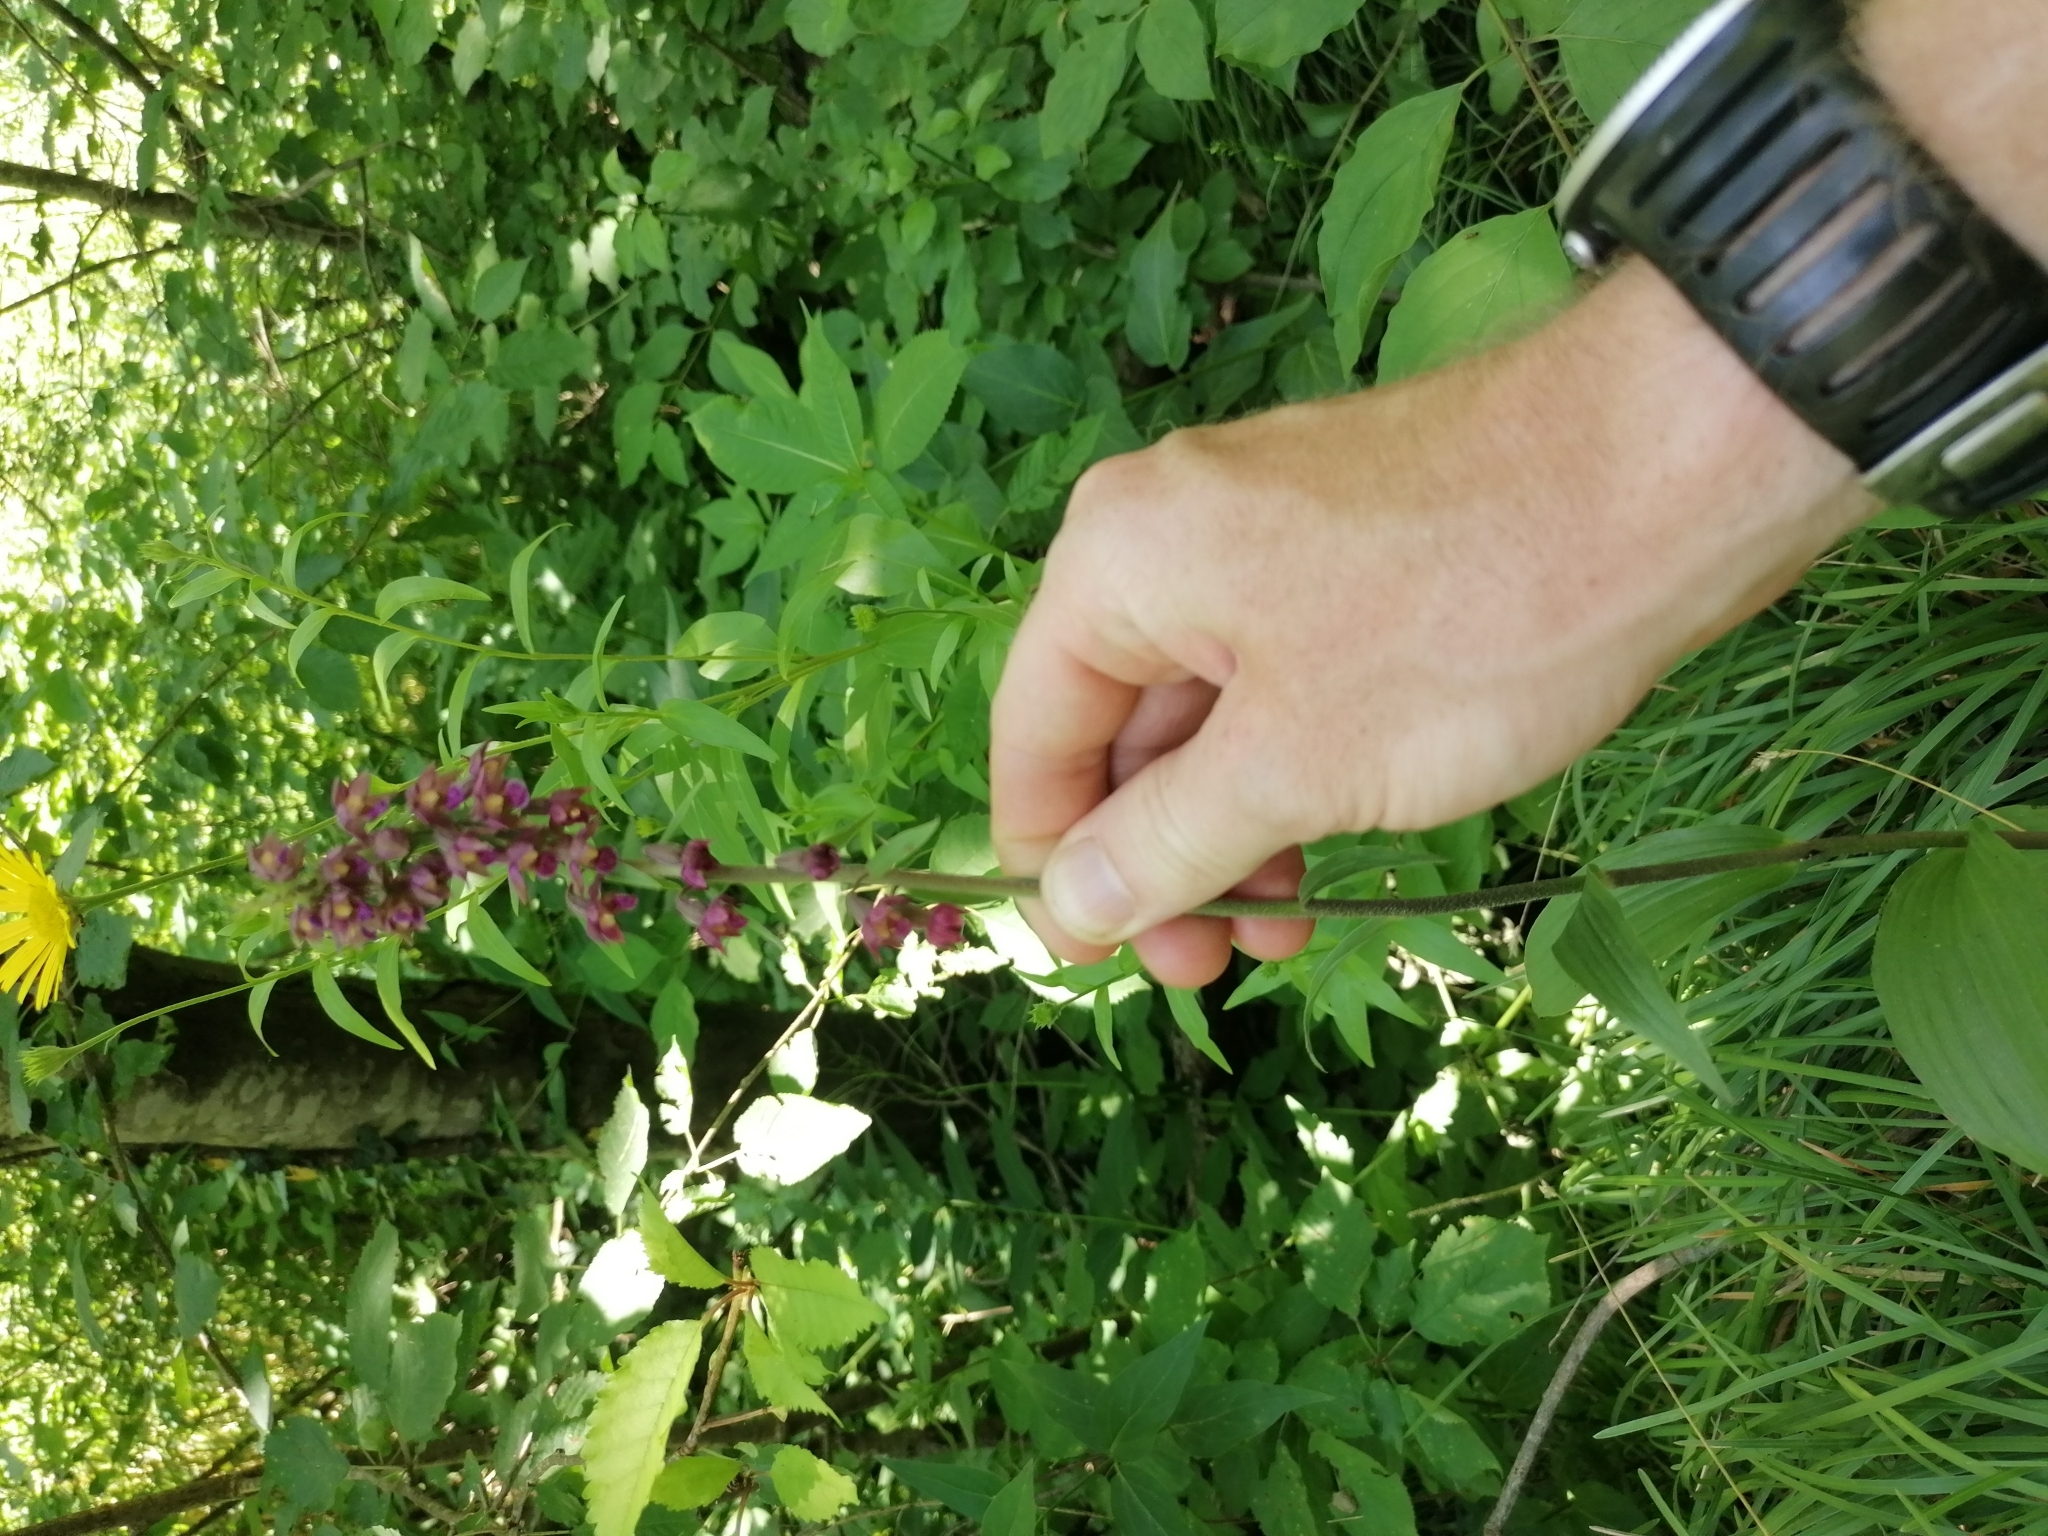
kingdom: Plantae
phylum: Tracheophyta
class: Liliopsida
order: Asparagales
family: Orchidaceae
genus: Epipactis
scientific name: Epipactis atrorubens
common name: Dark-red helleborine
